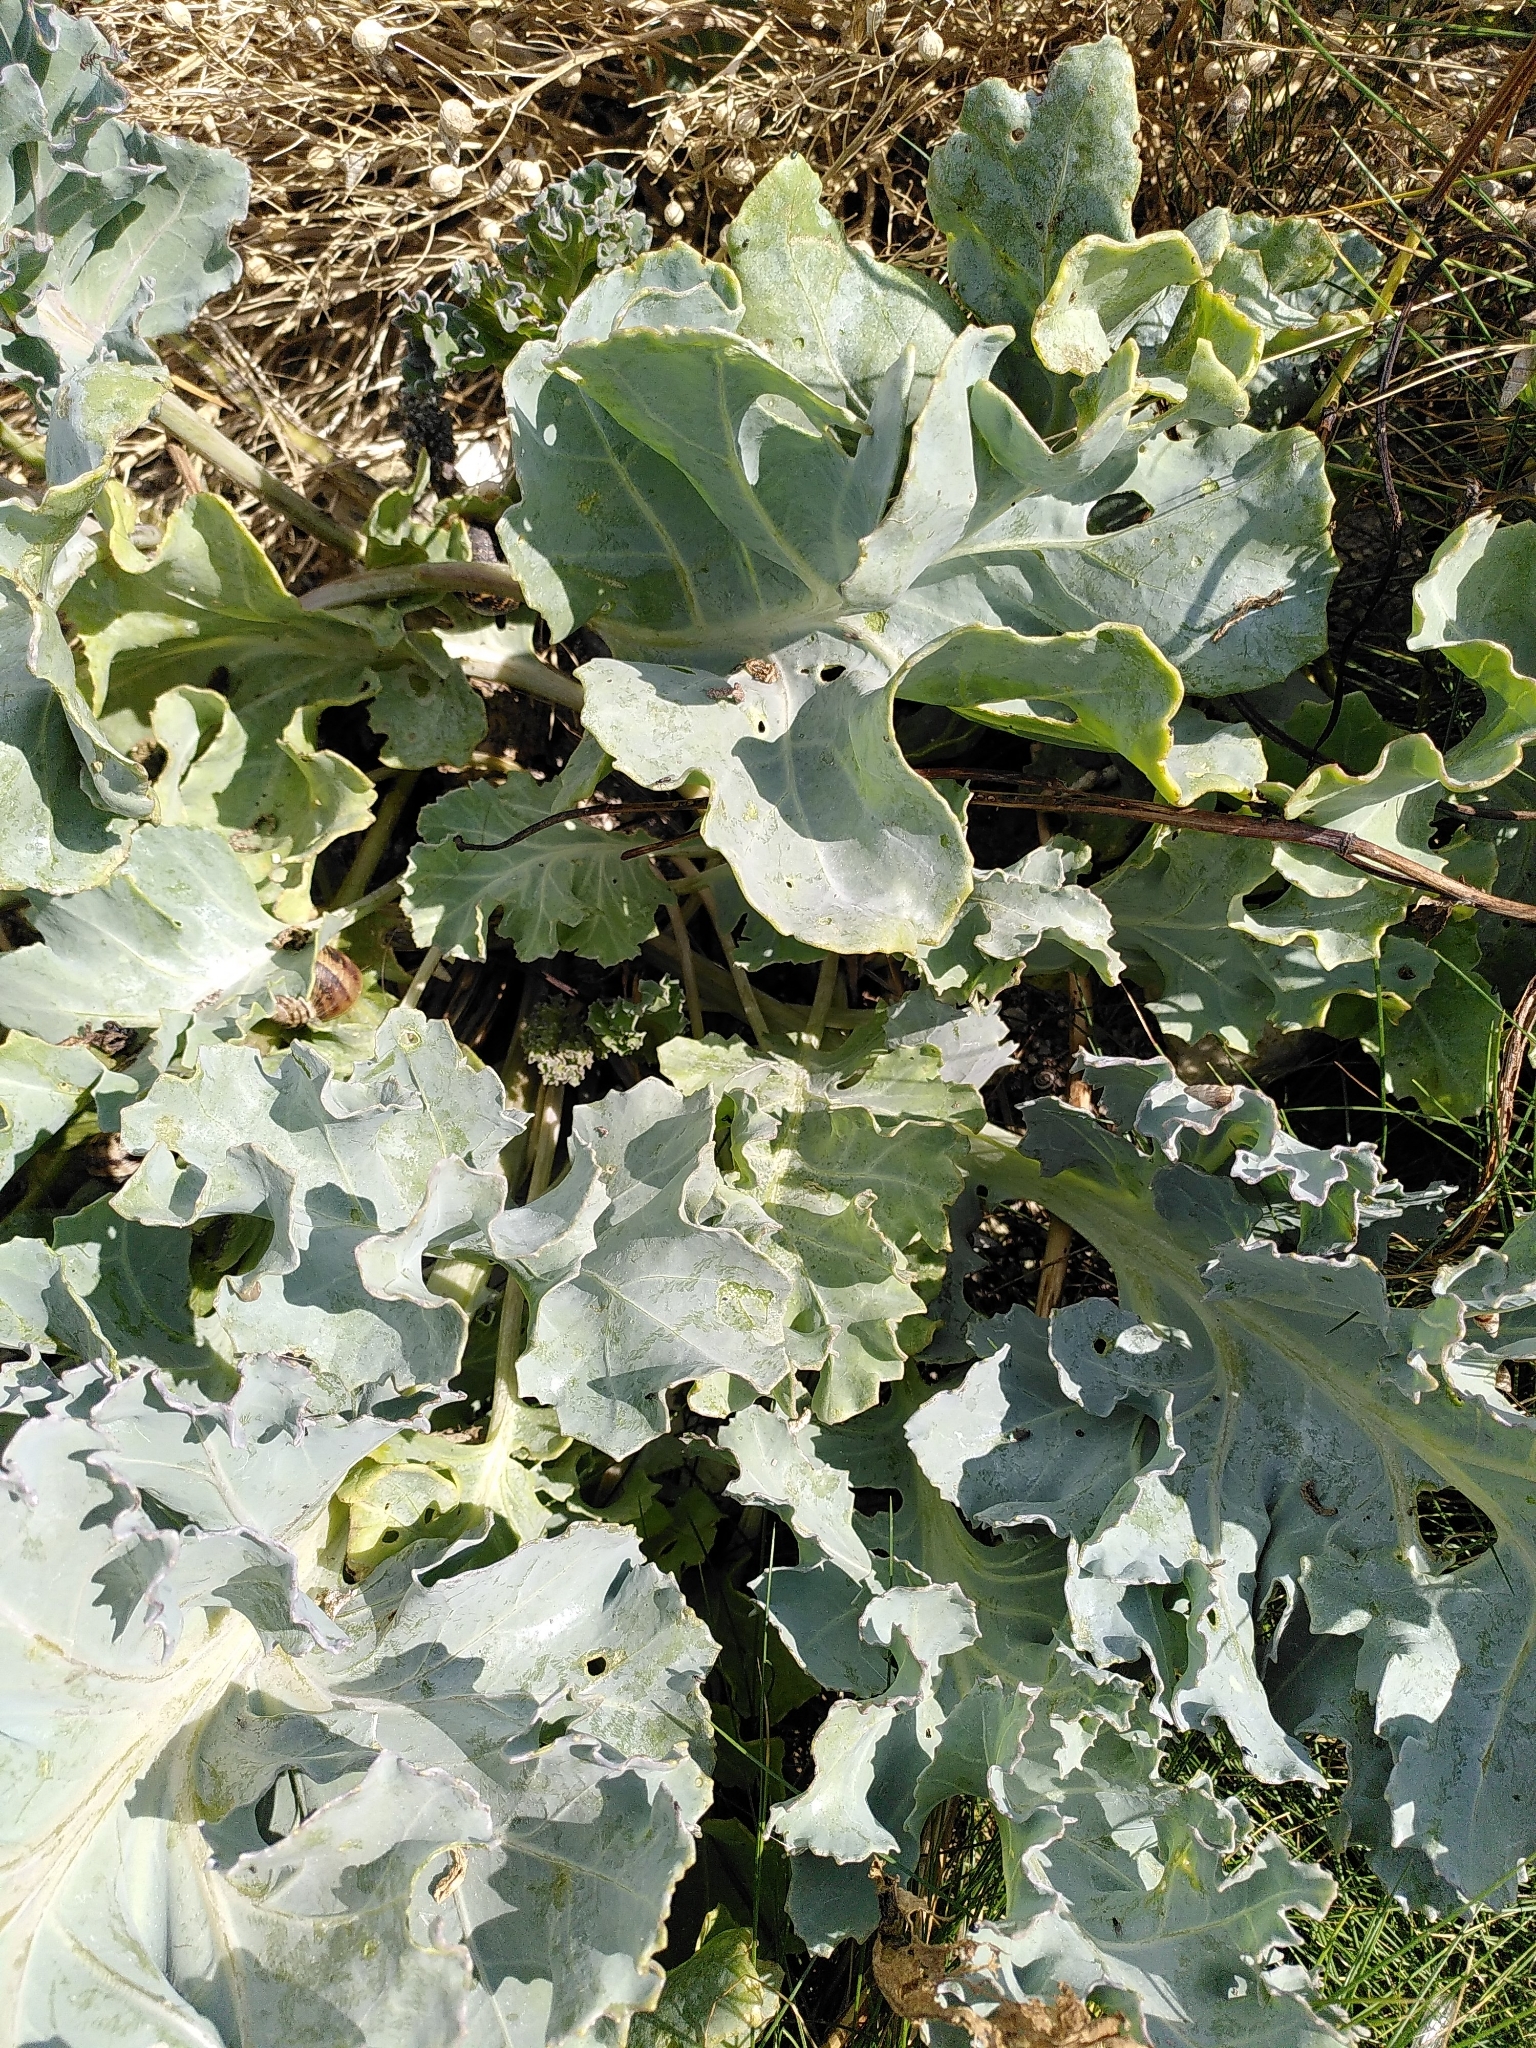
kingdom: Plantae
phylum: Tracheophyta
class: Magnoliopsida
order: Brassicales
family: Brassicaceae
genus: Crambe
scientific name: Crambe maritima
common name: Sea-kale
